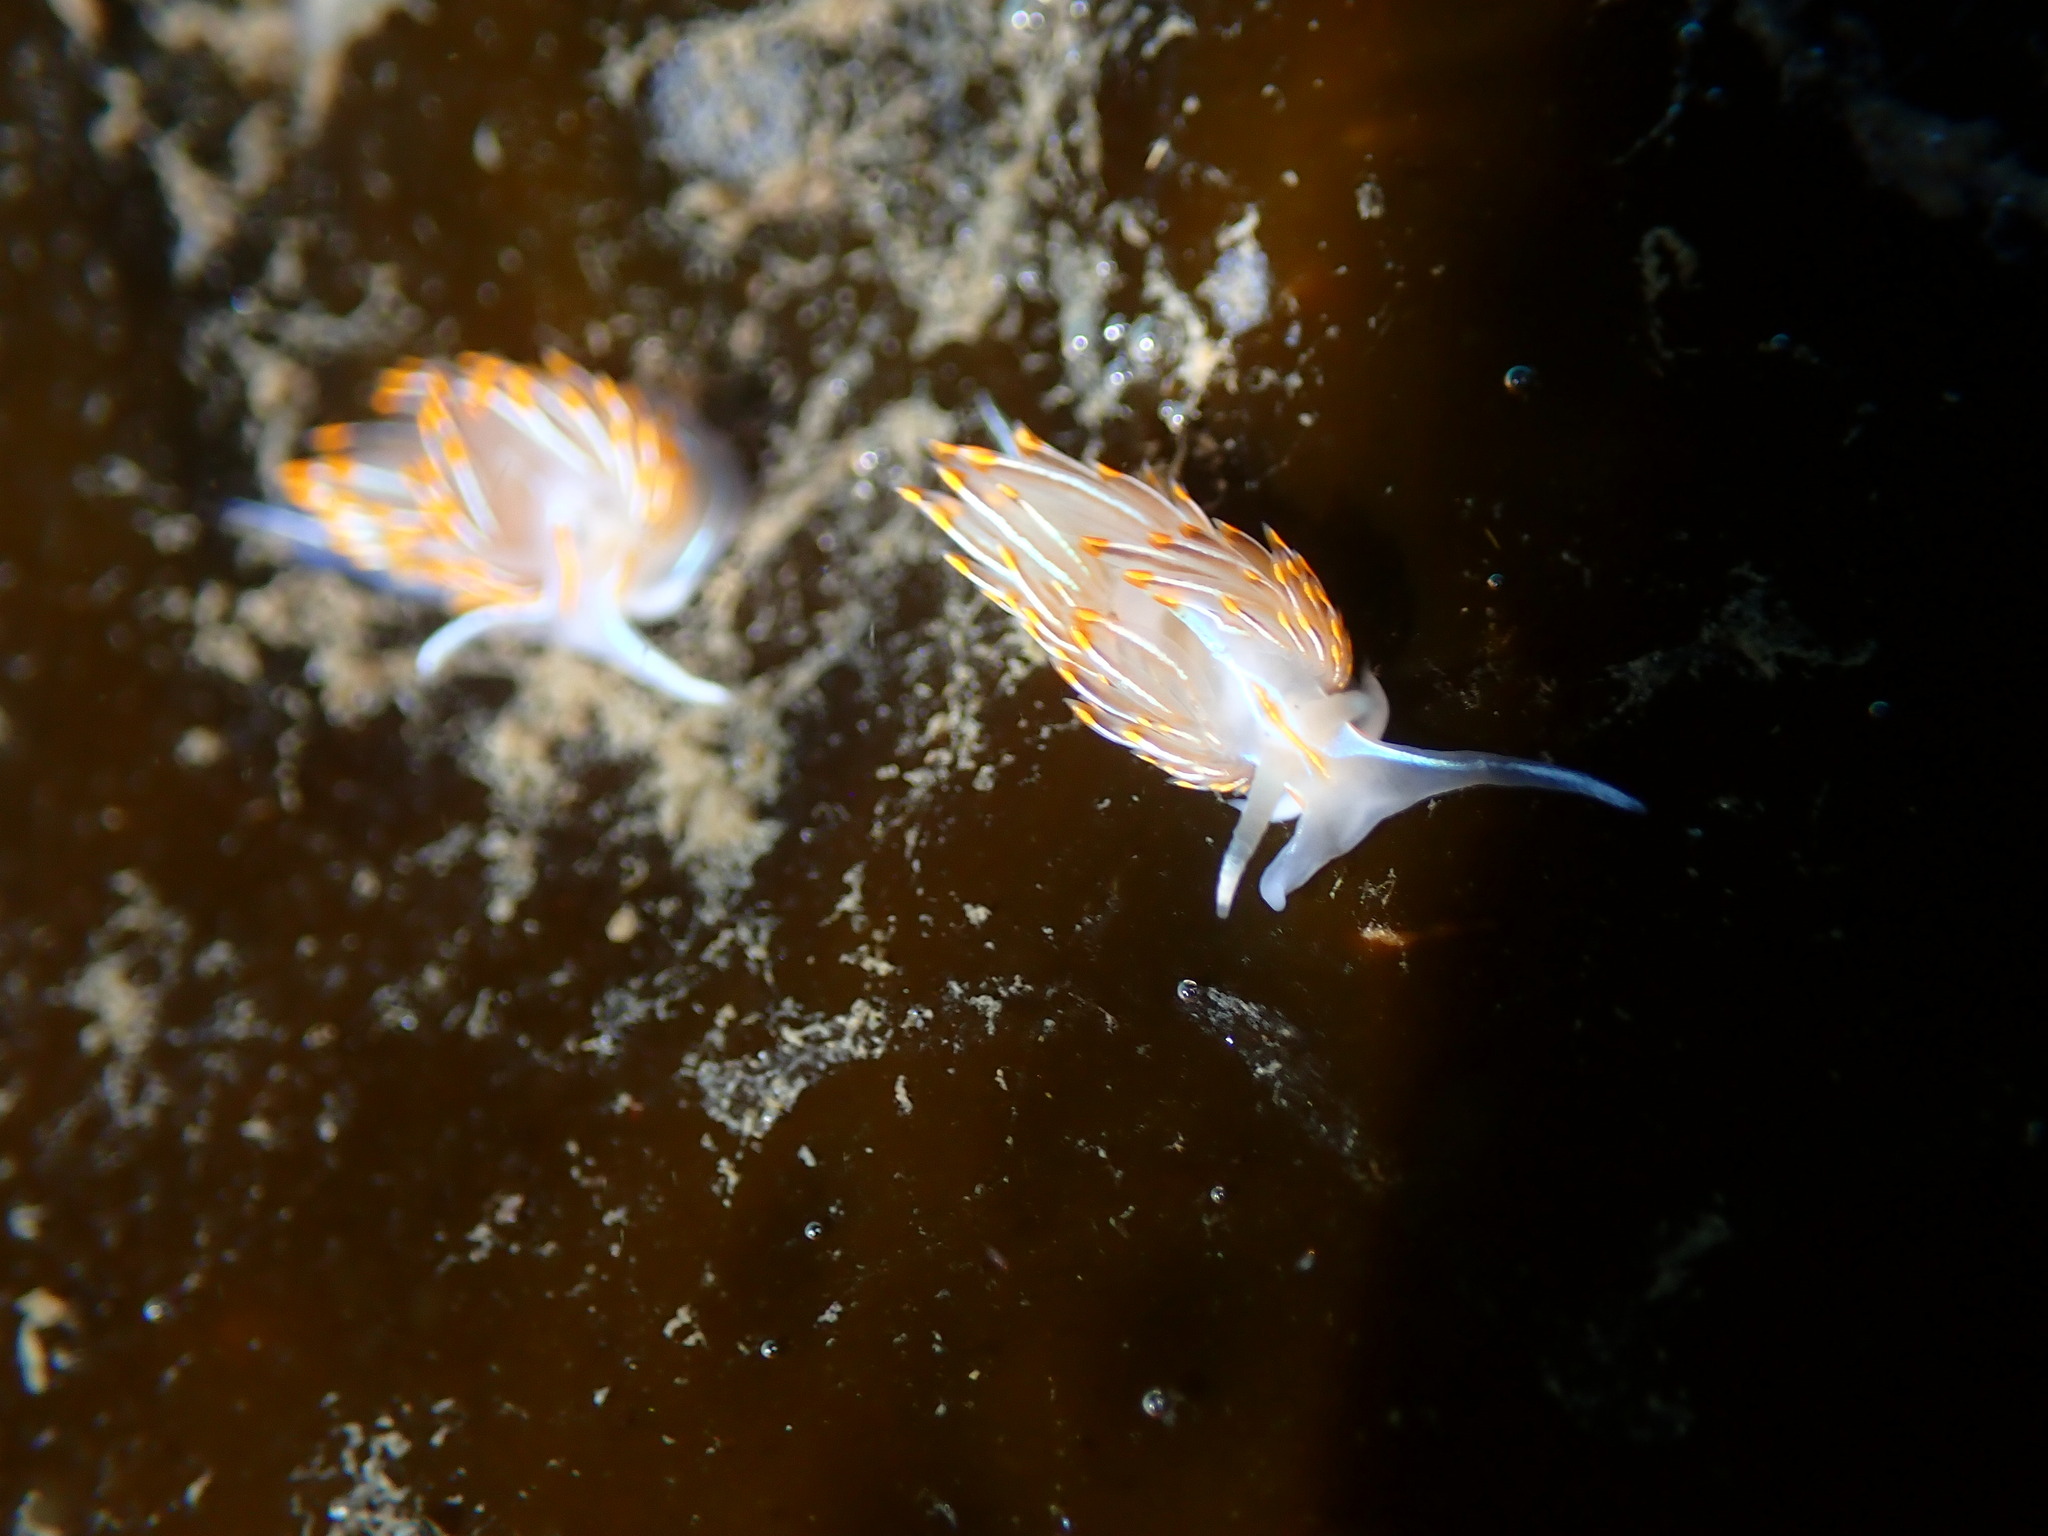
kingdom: Animalia
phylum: Mollusca
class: Gastropoda
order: Nudibranchia
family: Myrrhinidae
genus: Hermissenda
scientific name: Hermissenda crassicornis
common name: Hermissenda
